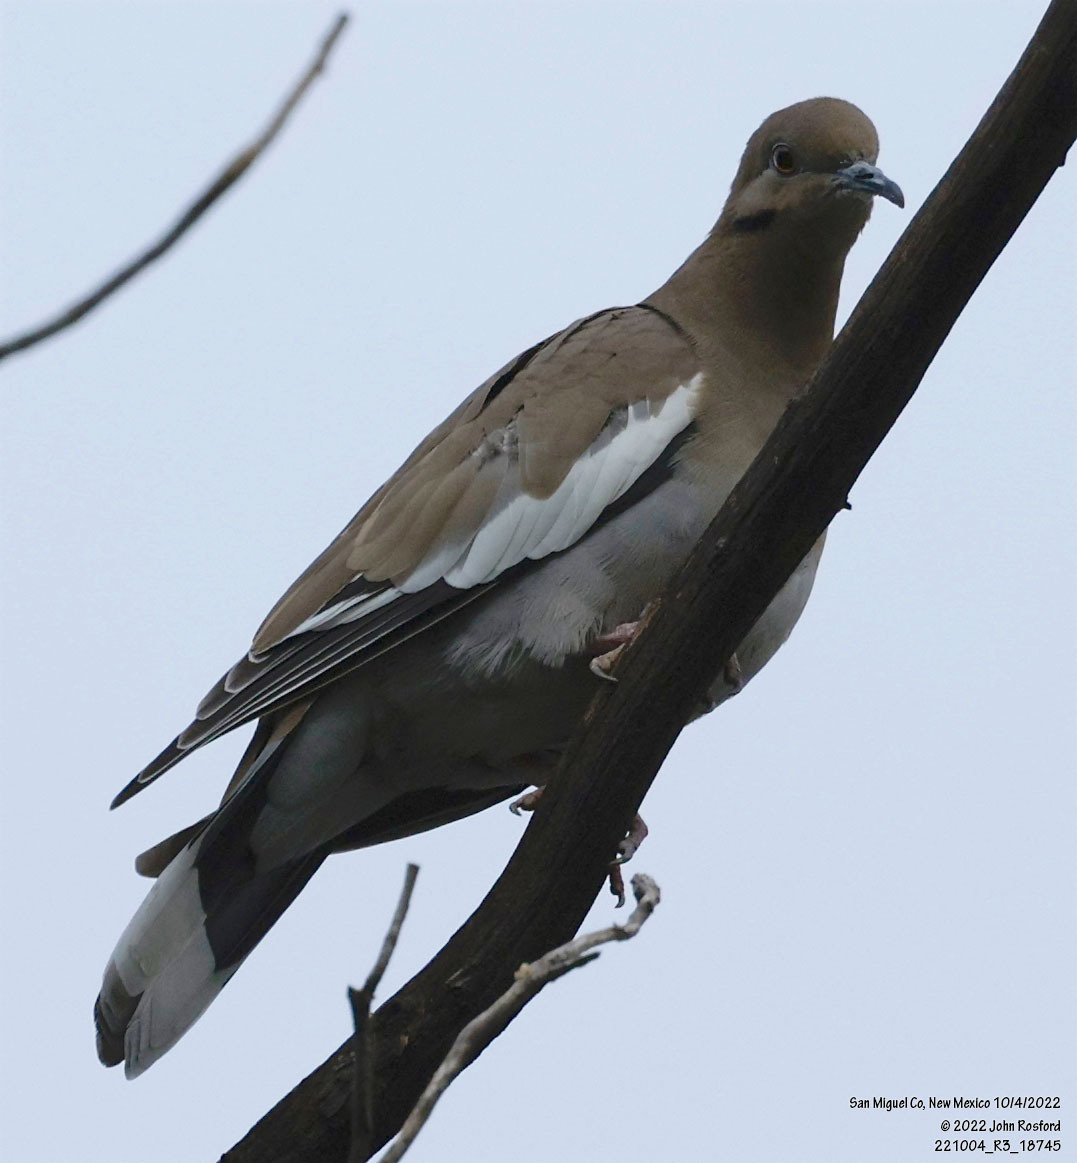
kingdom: Animalia
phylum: Chordata
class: Aves
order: Columbiformes
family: Columbidae
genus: Zenaida
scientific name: Zenaida asiatica
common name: White-winged dove
